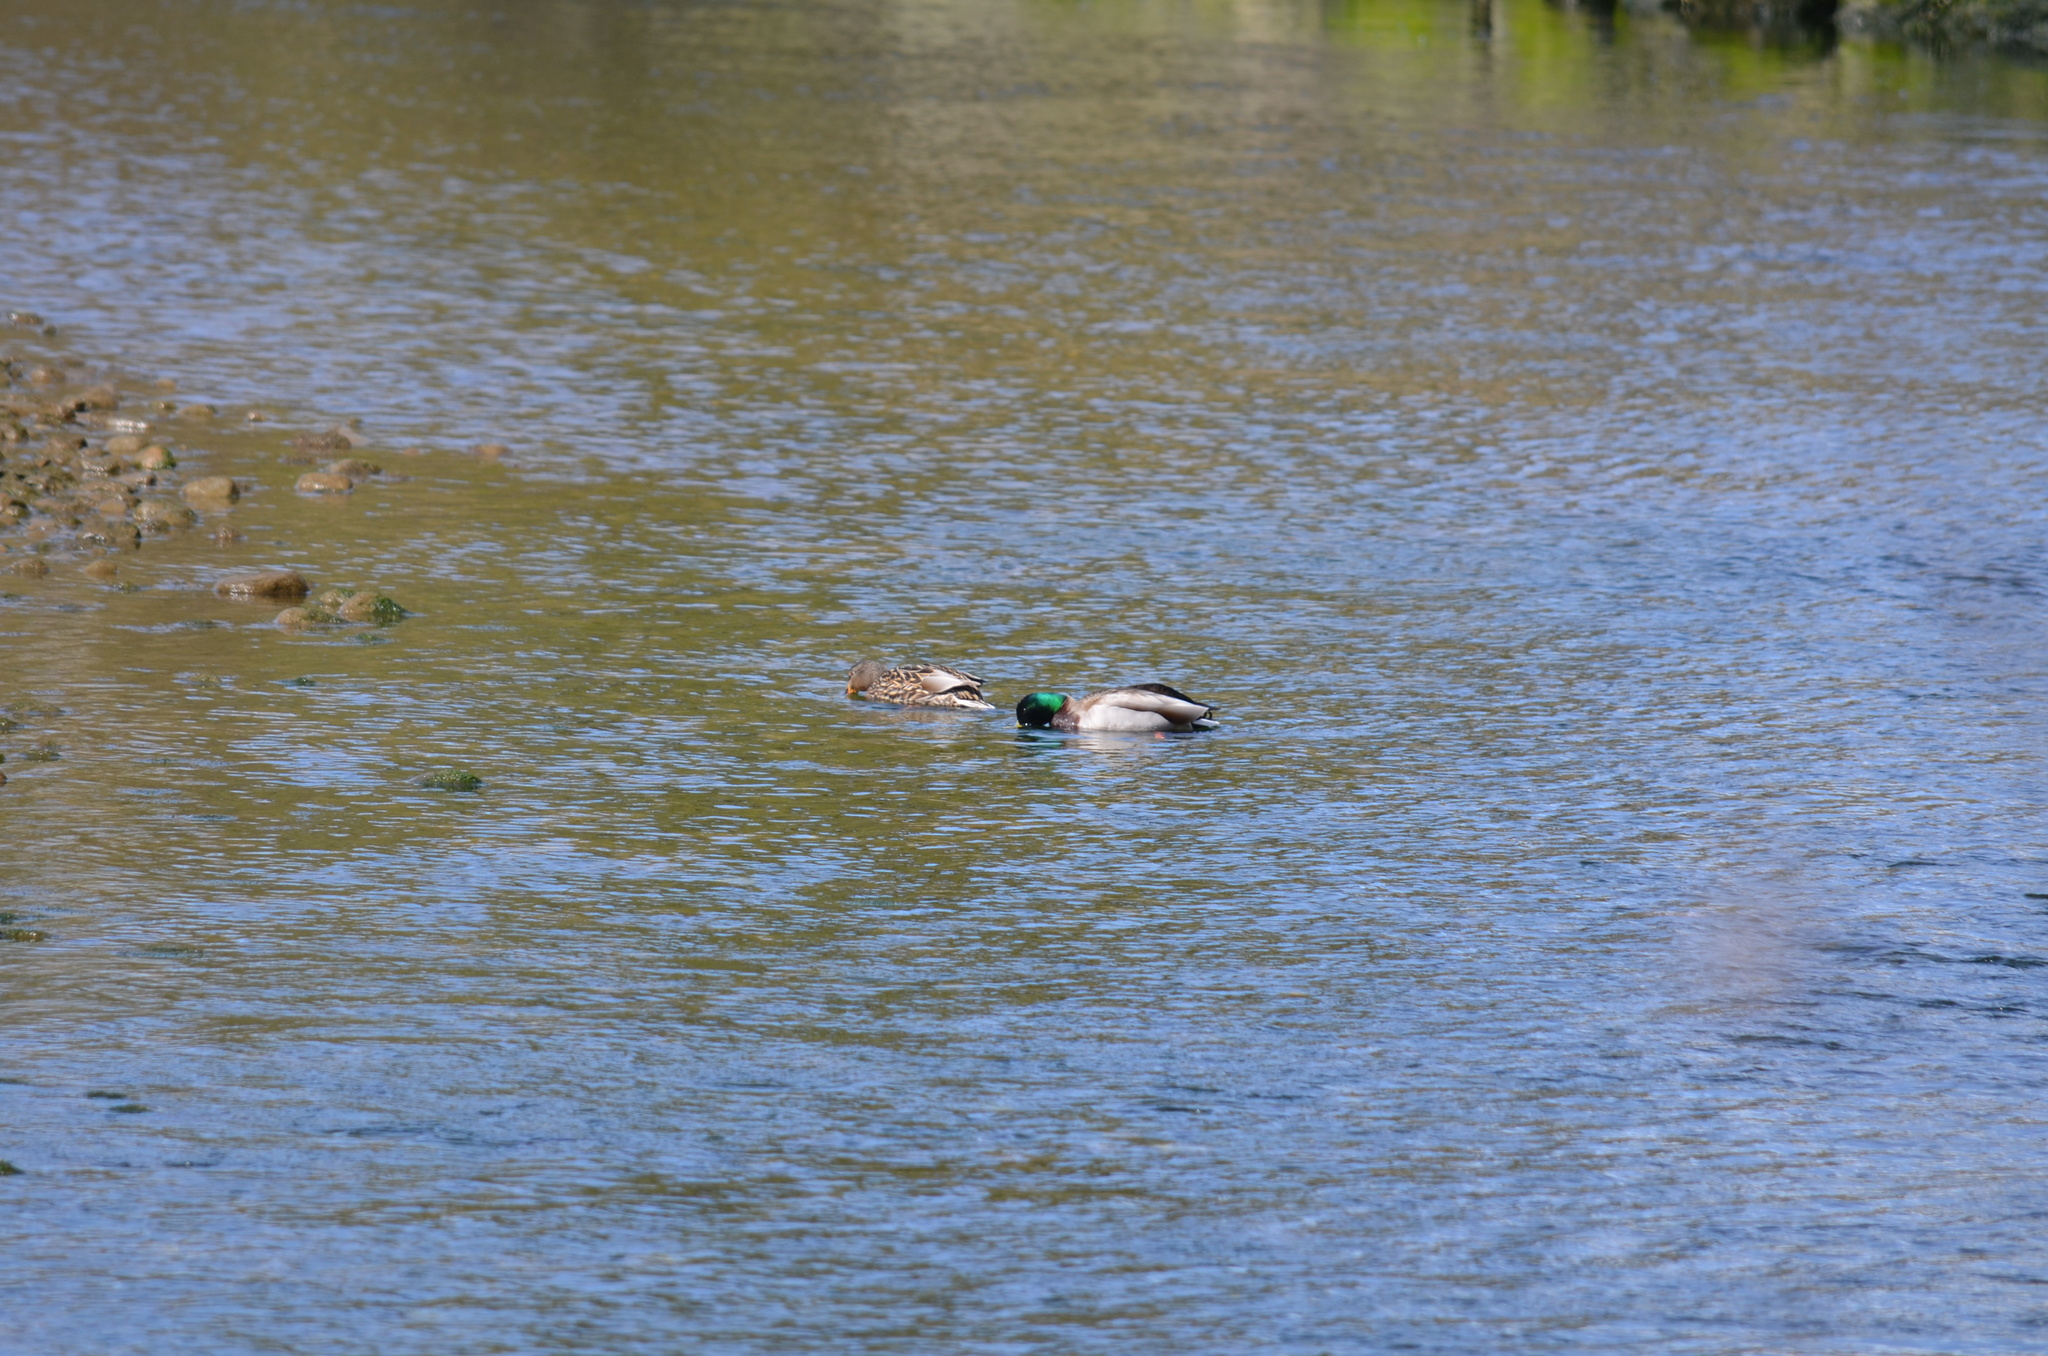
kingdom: Animalia
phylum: Chordata
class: Aves
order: Anseriformes
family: Anatidae
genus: Anas
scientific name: Anas platyrhynchos
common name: Mallard
